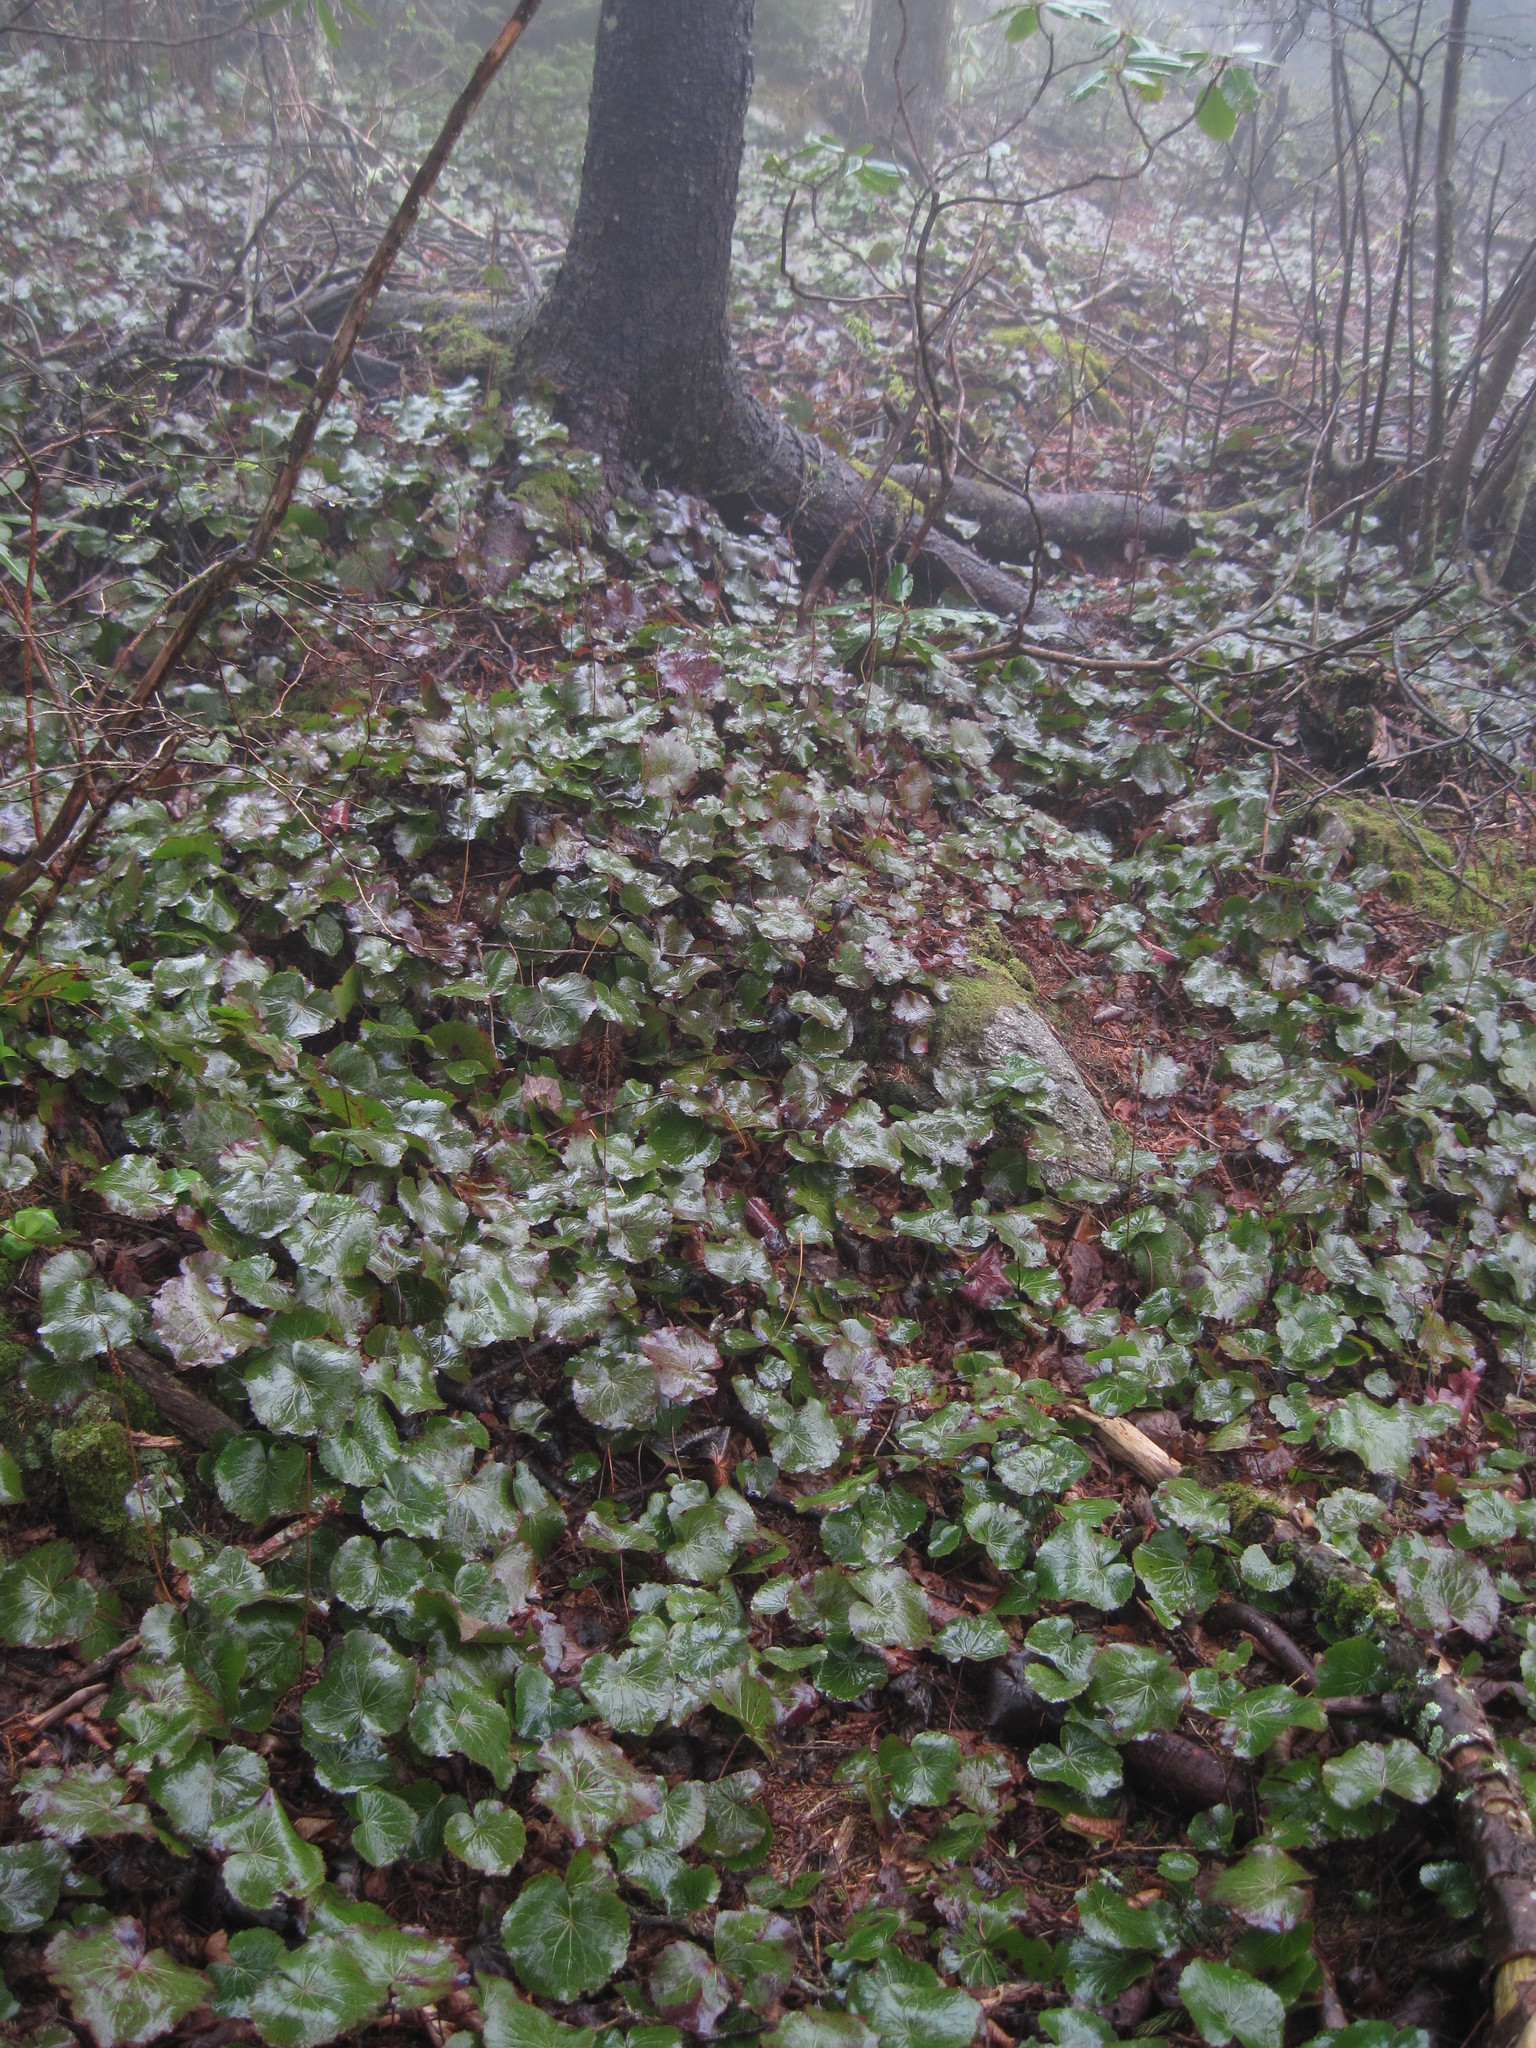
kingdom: Plantae
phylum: Tracheophyta
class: Magnoliopsida
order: Ericales
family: Diapensiaceae
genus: Galax
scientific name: Galax urceolata
